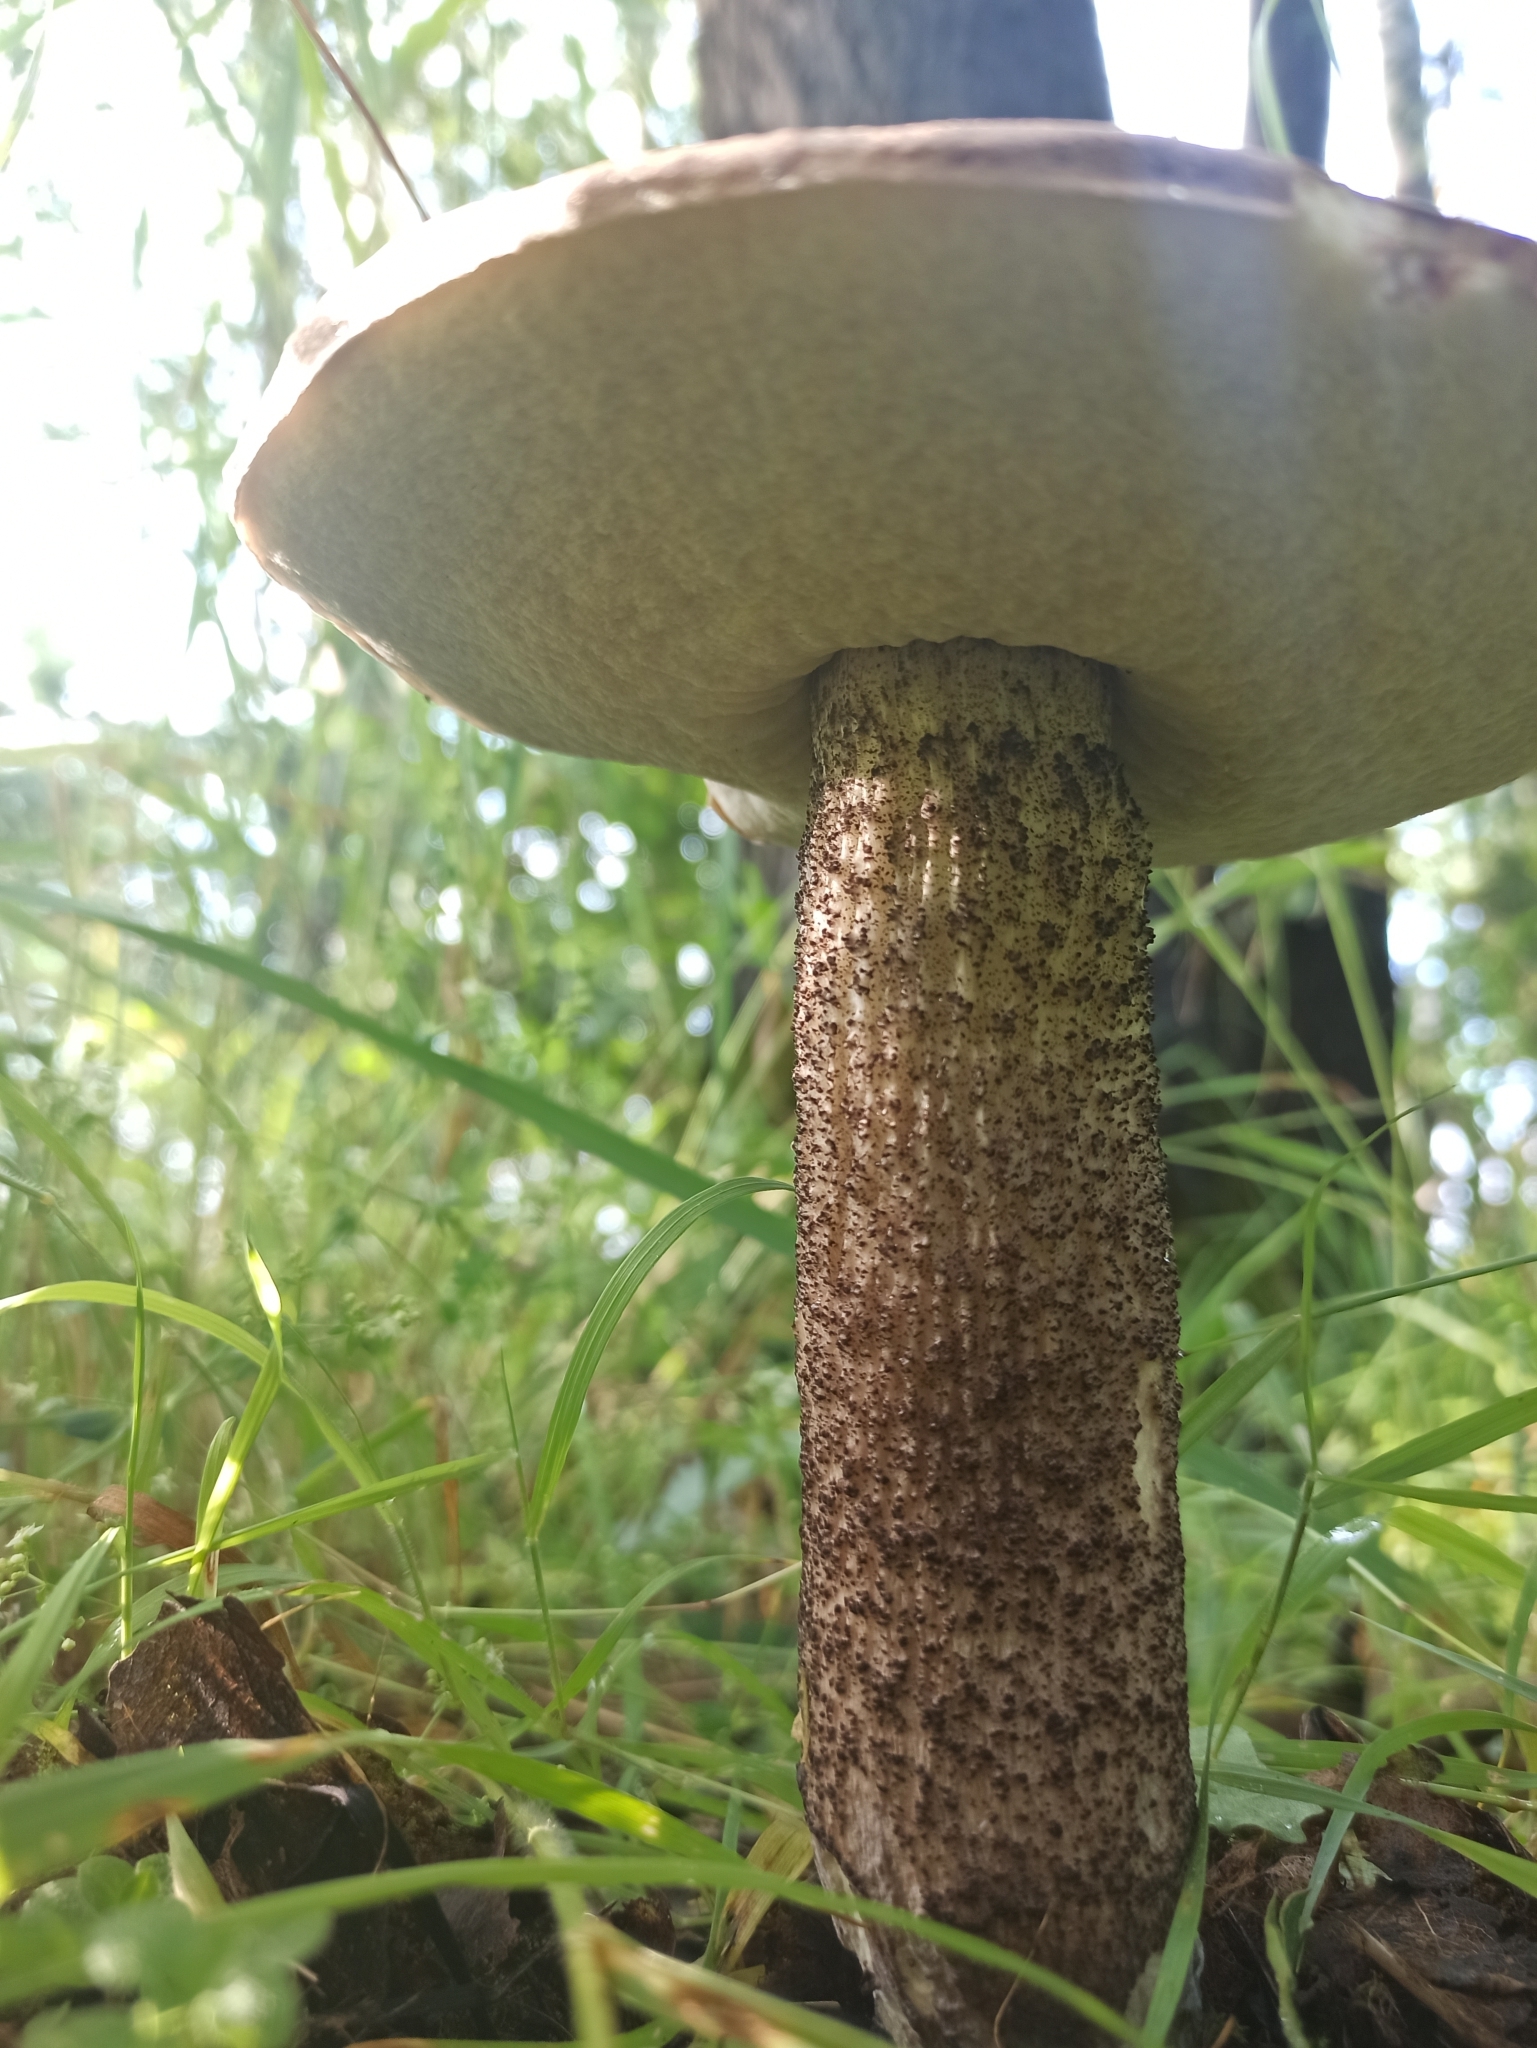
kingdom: Fungi
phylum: Basidiomycota
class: Agaricomycetes
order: Boletales
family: Boletaceae
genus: Leccinum
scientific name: Leccinum scabrum
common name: Blushing bolete
